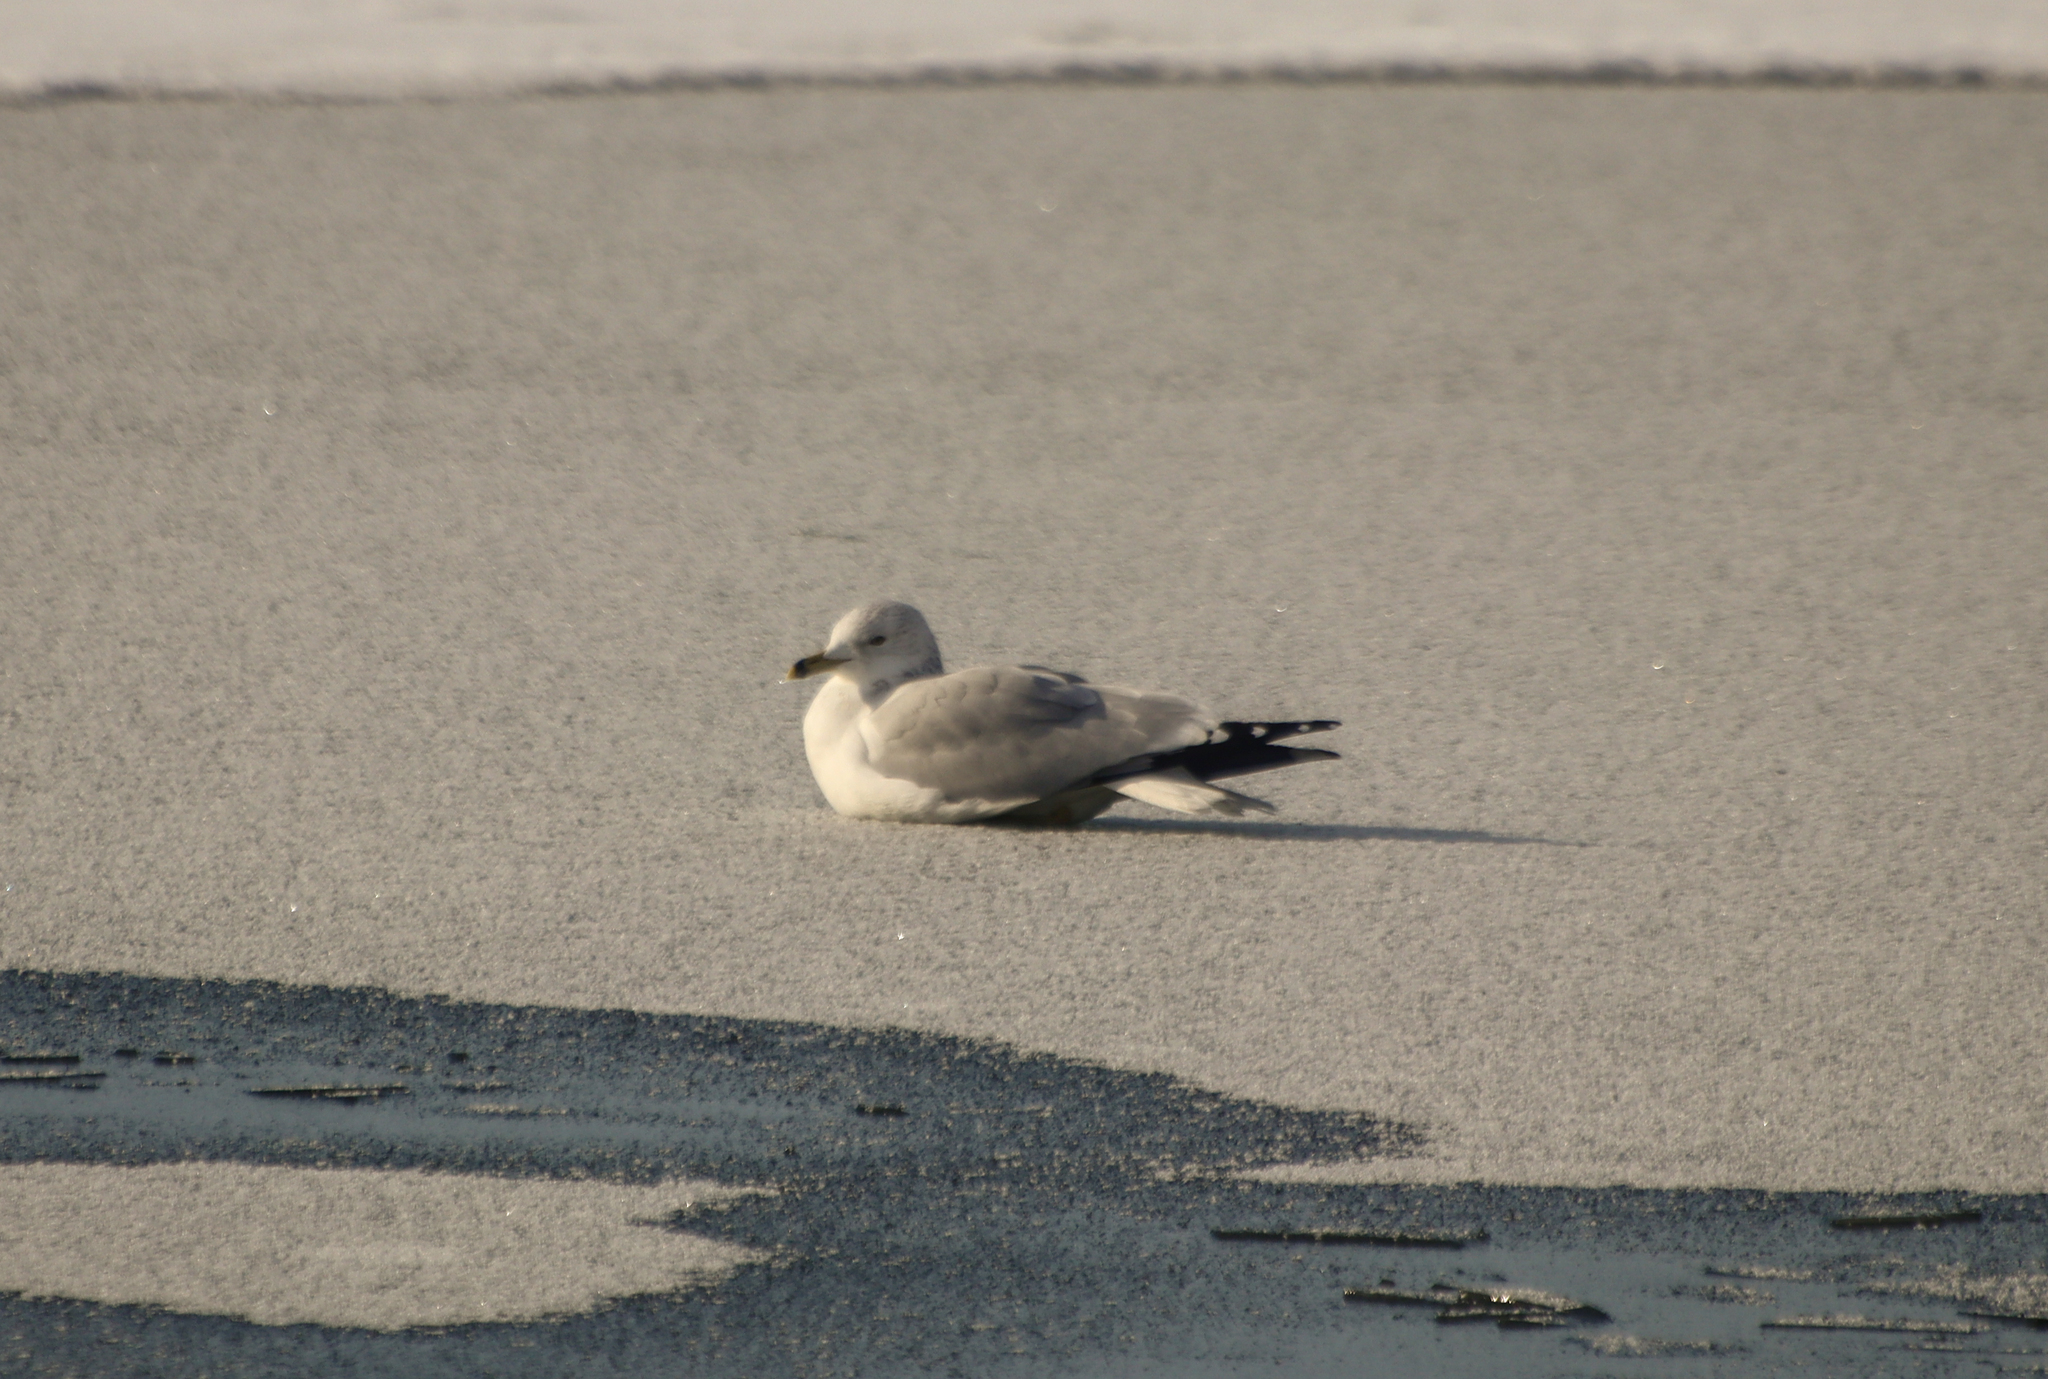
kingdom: Animalia
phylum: Chordata
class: Aves
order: Charadriiformes
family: Laridae
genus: Larus
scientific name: Larus delawarensis
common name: Ring-billed gull
